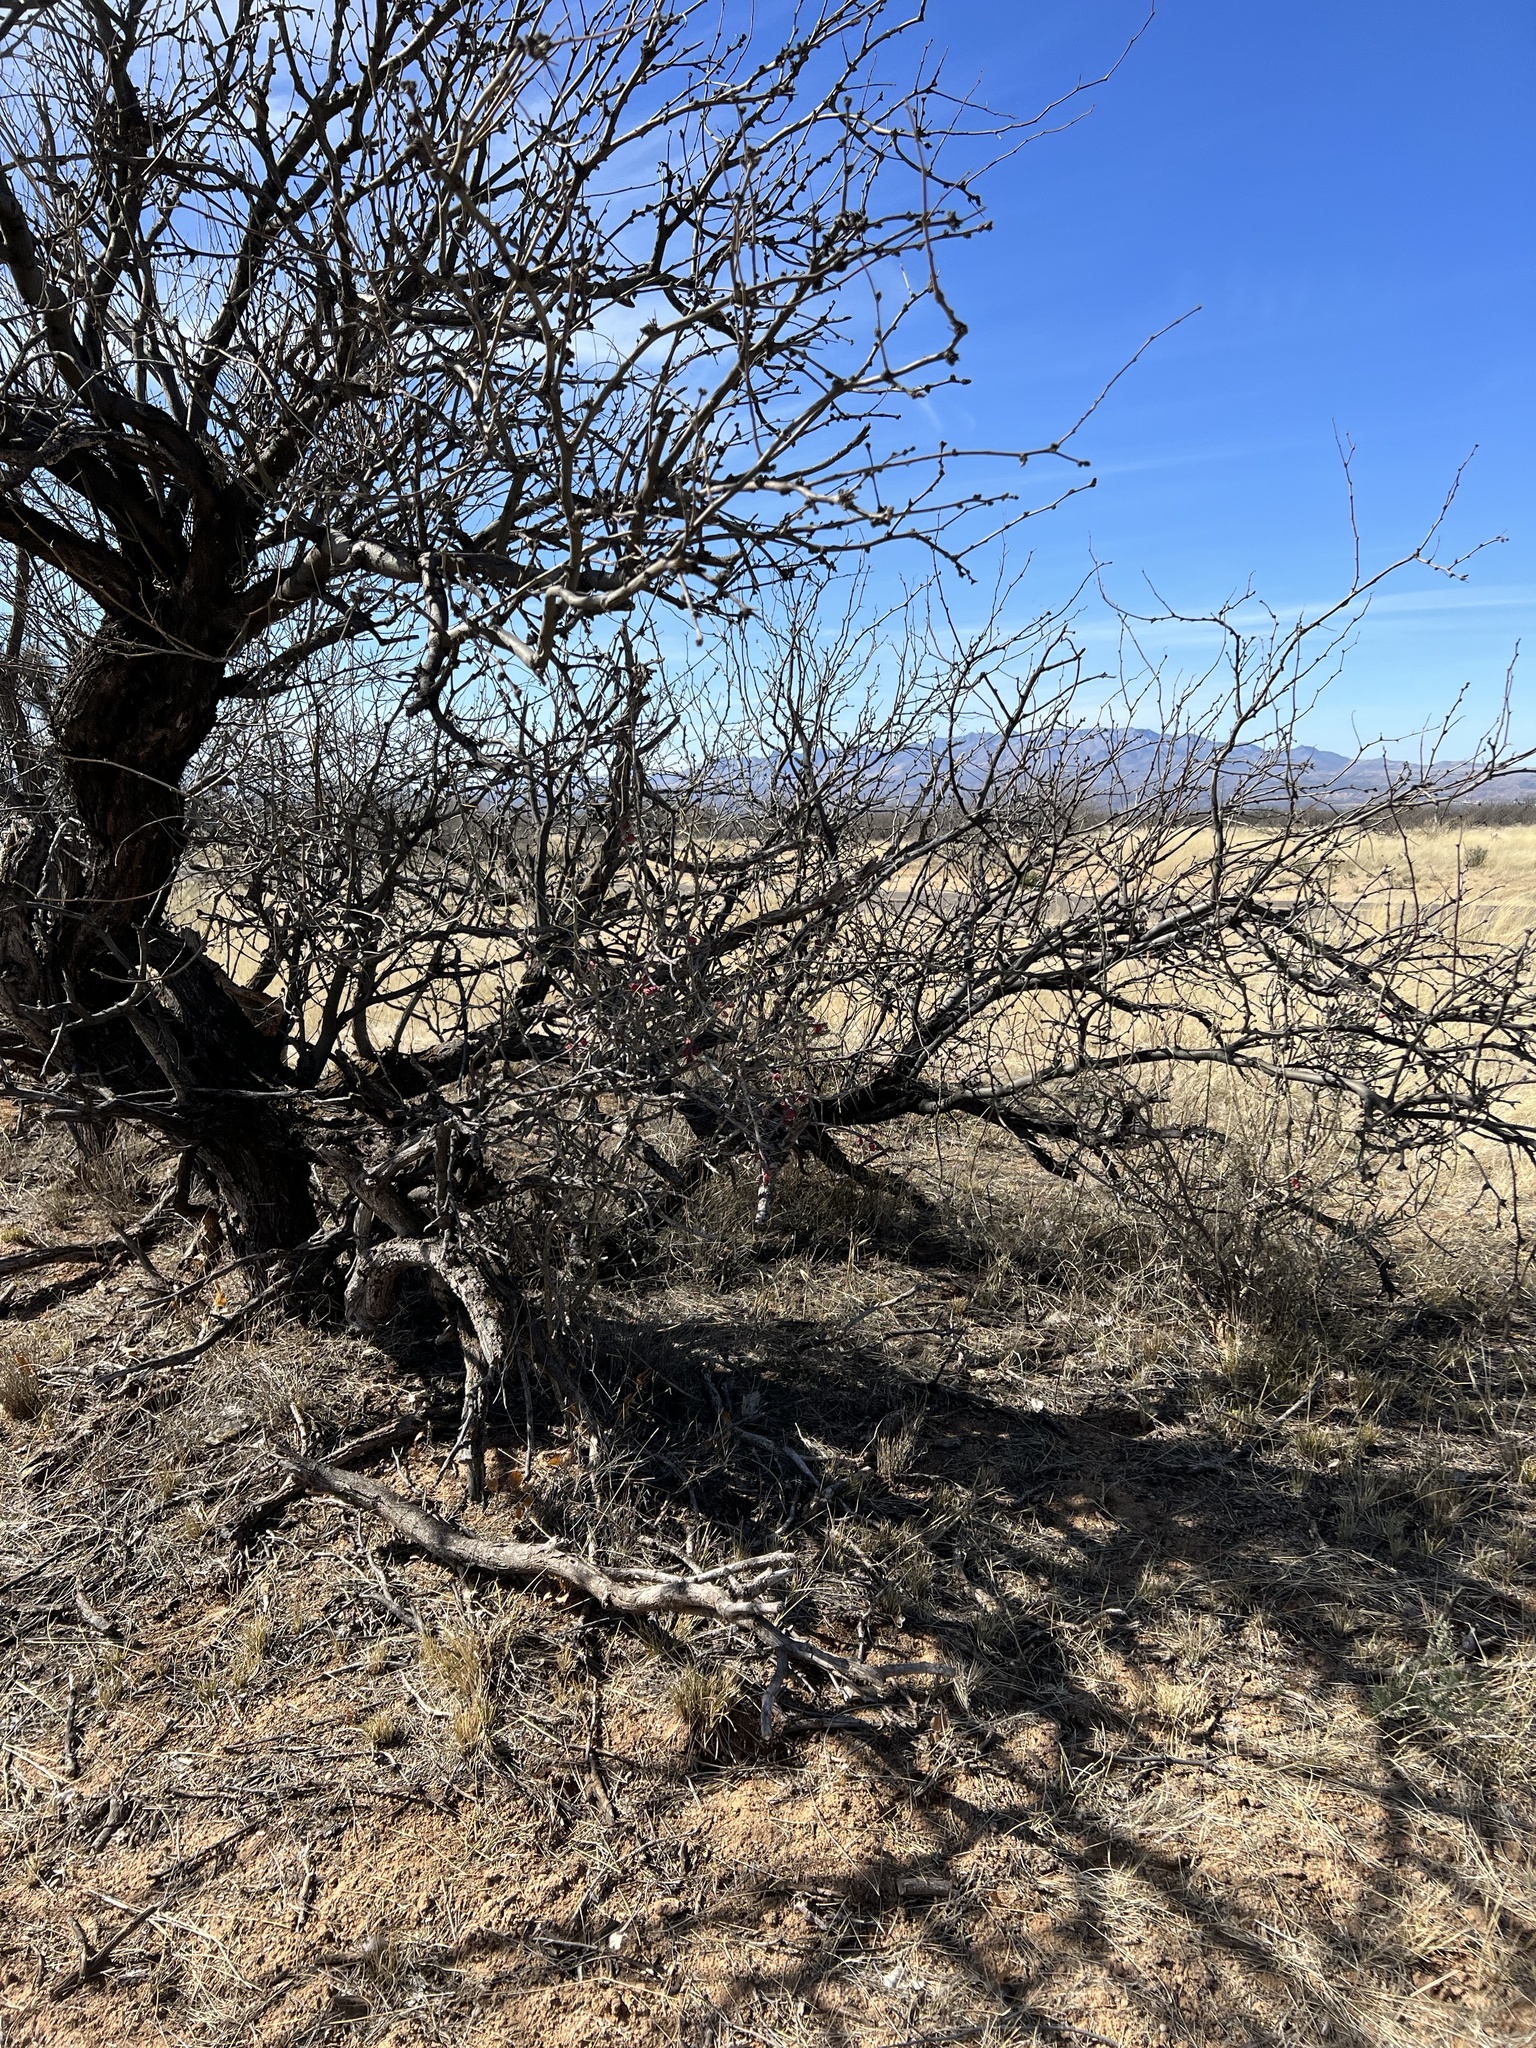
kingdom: Plantae
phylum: Tracheophyta
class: Magnoliopsida
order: Caryophyllales
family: Cactaceae
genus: Cylindropuntia
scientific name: Cylindropuntia leptocaulis
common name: Christmas cactus
